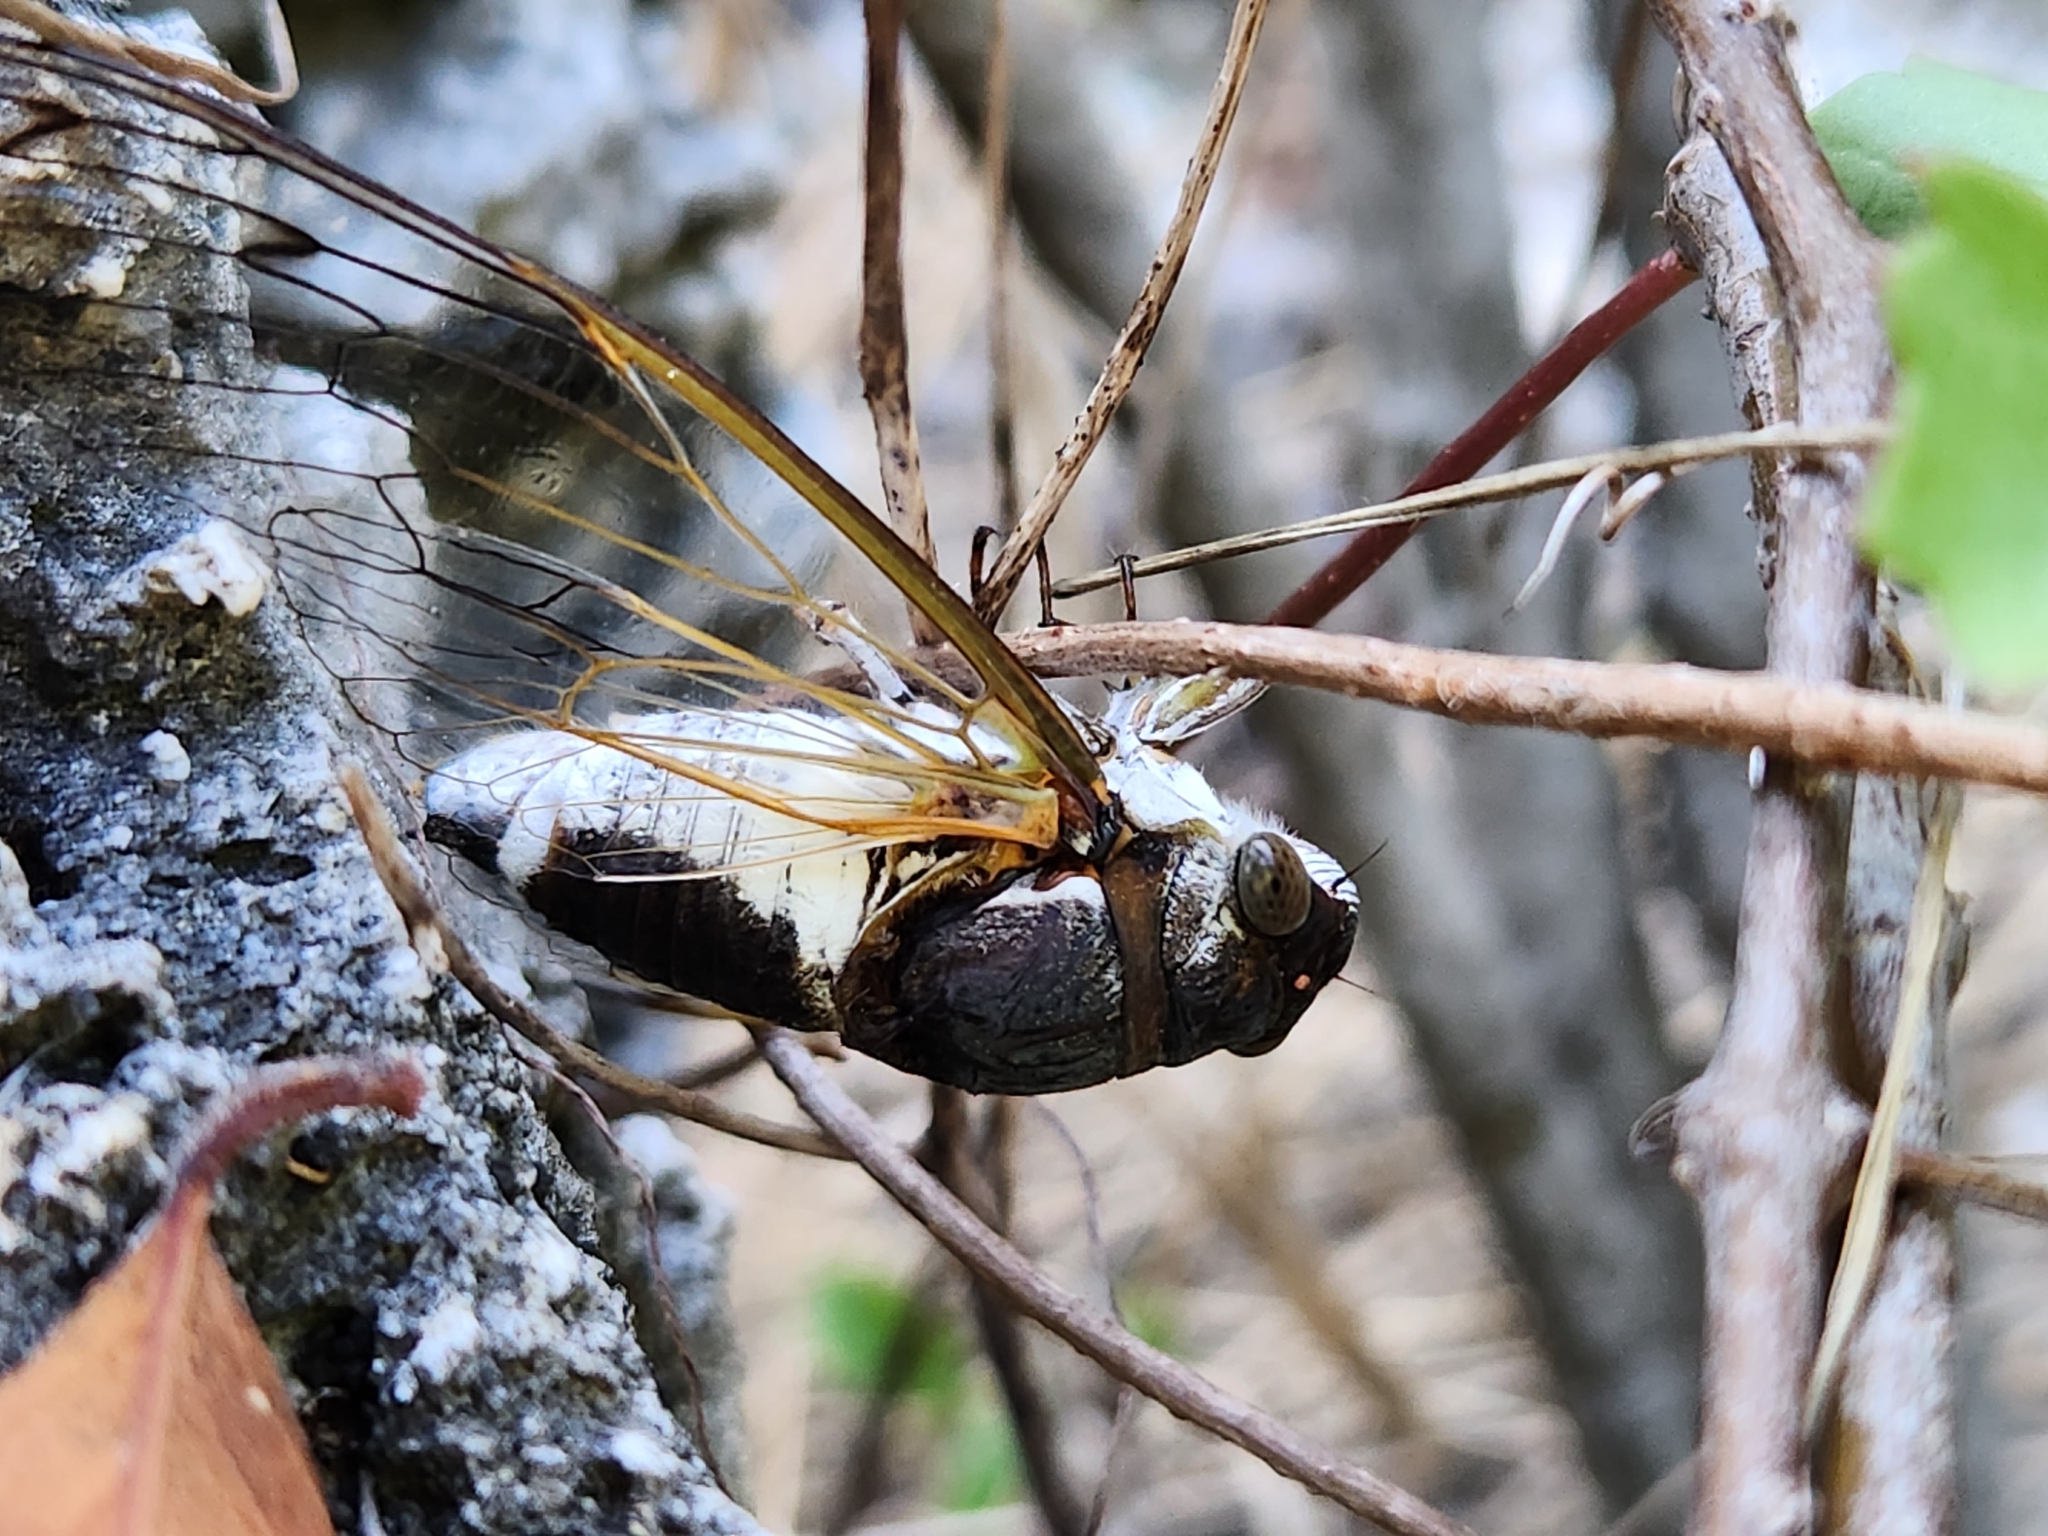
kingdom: Animalia
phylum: Arthropoda
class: Insecta
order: Hemiptera
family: Cicadidae
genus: Diceroprocta
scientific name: Diceroprocta ovata
